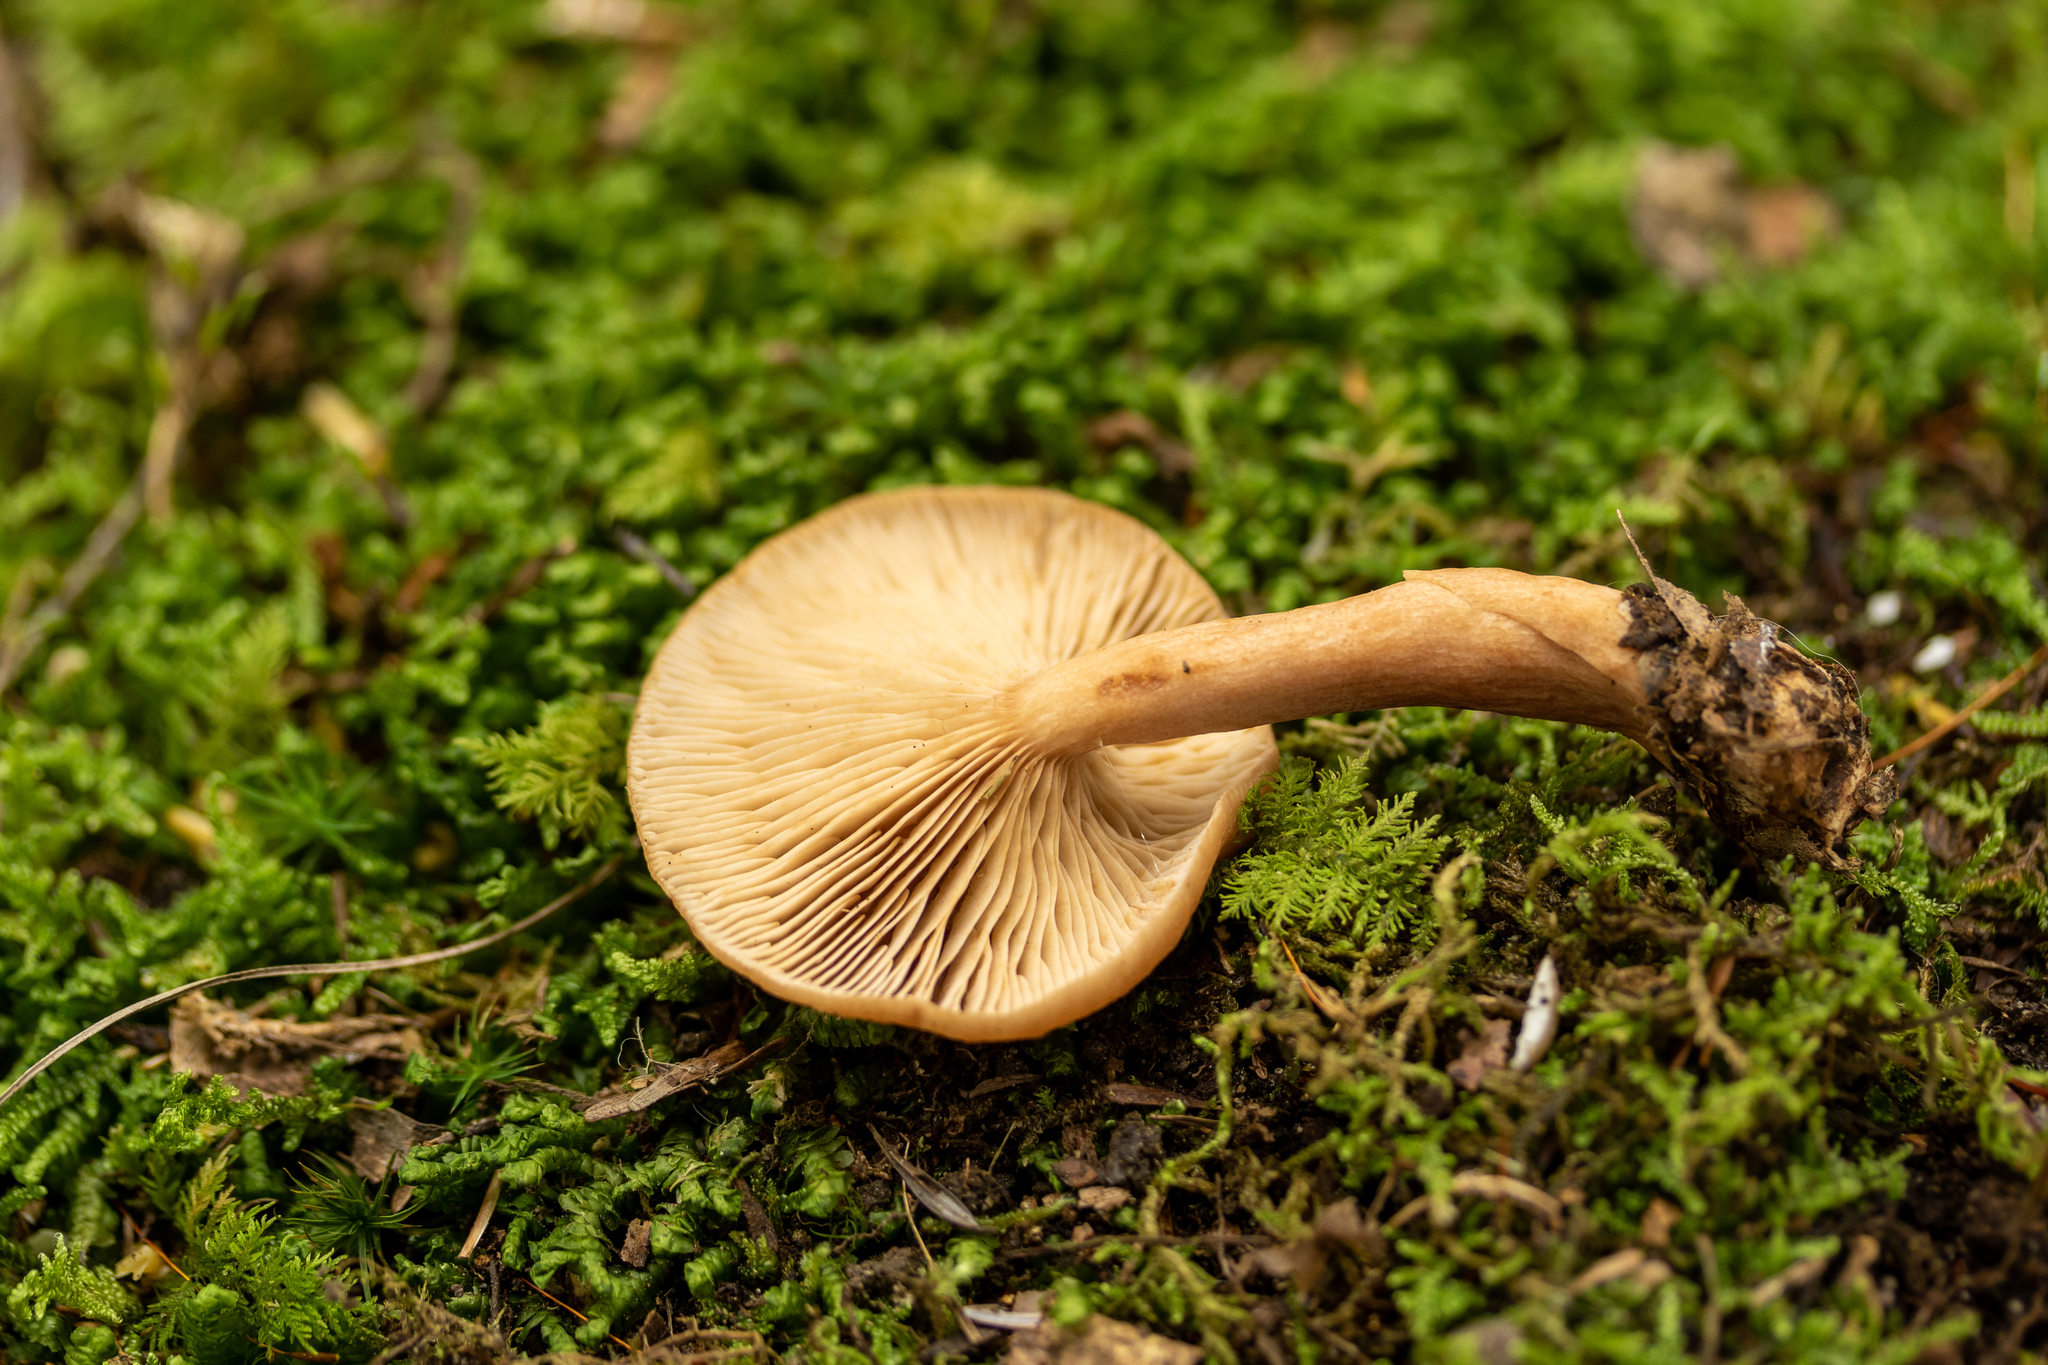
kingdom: Fungi
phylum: Basidiomycota
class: Agaricomycetes
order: Russulales
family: Russulaceae
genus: Lactarius
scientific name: Lactarius tabidus
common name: Birch milkcap
